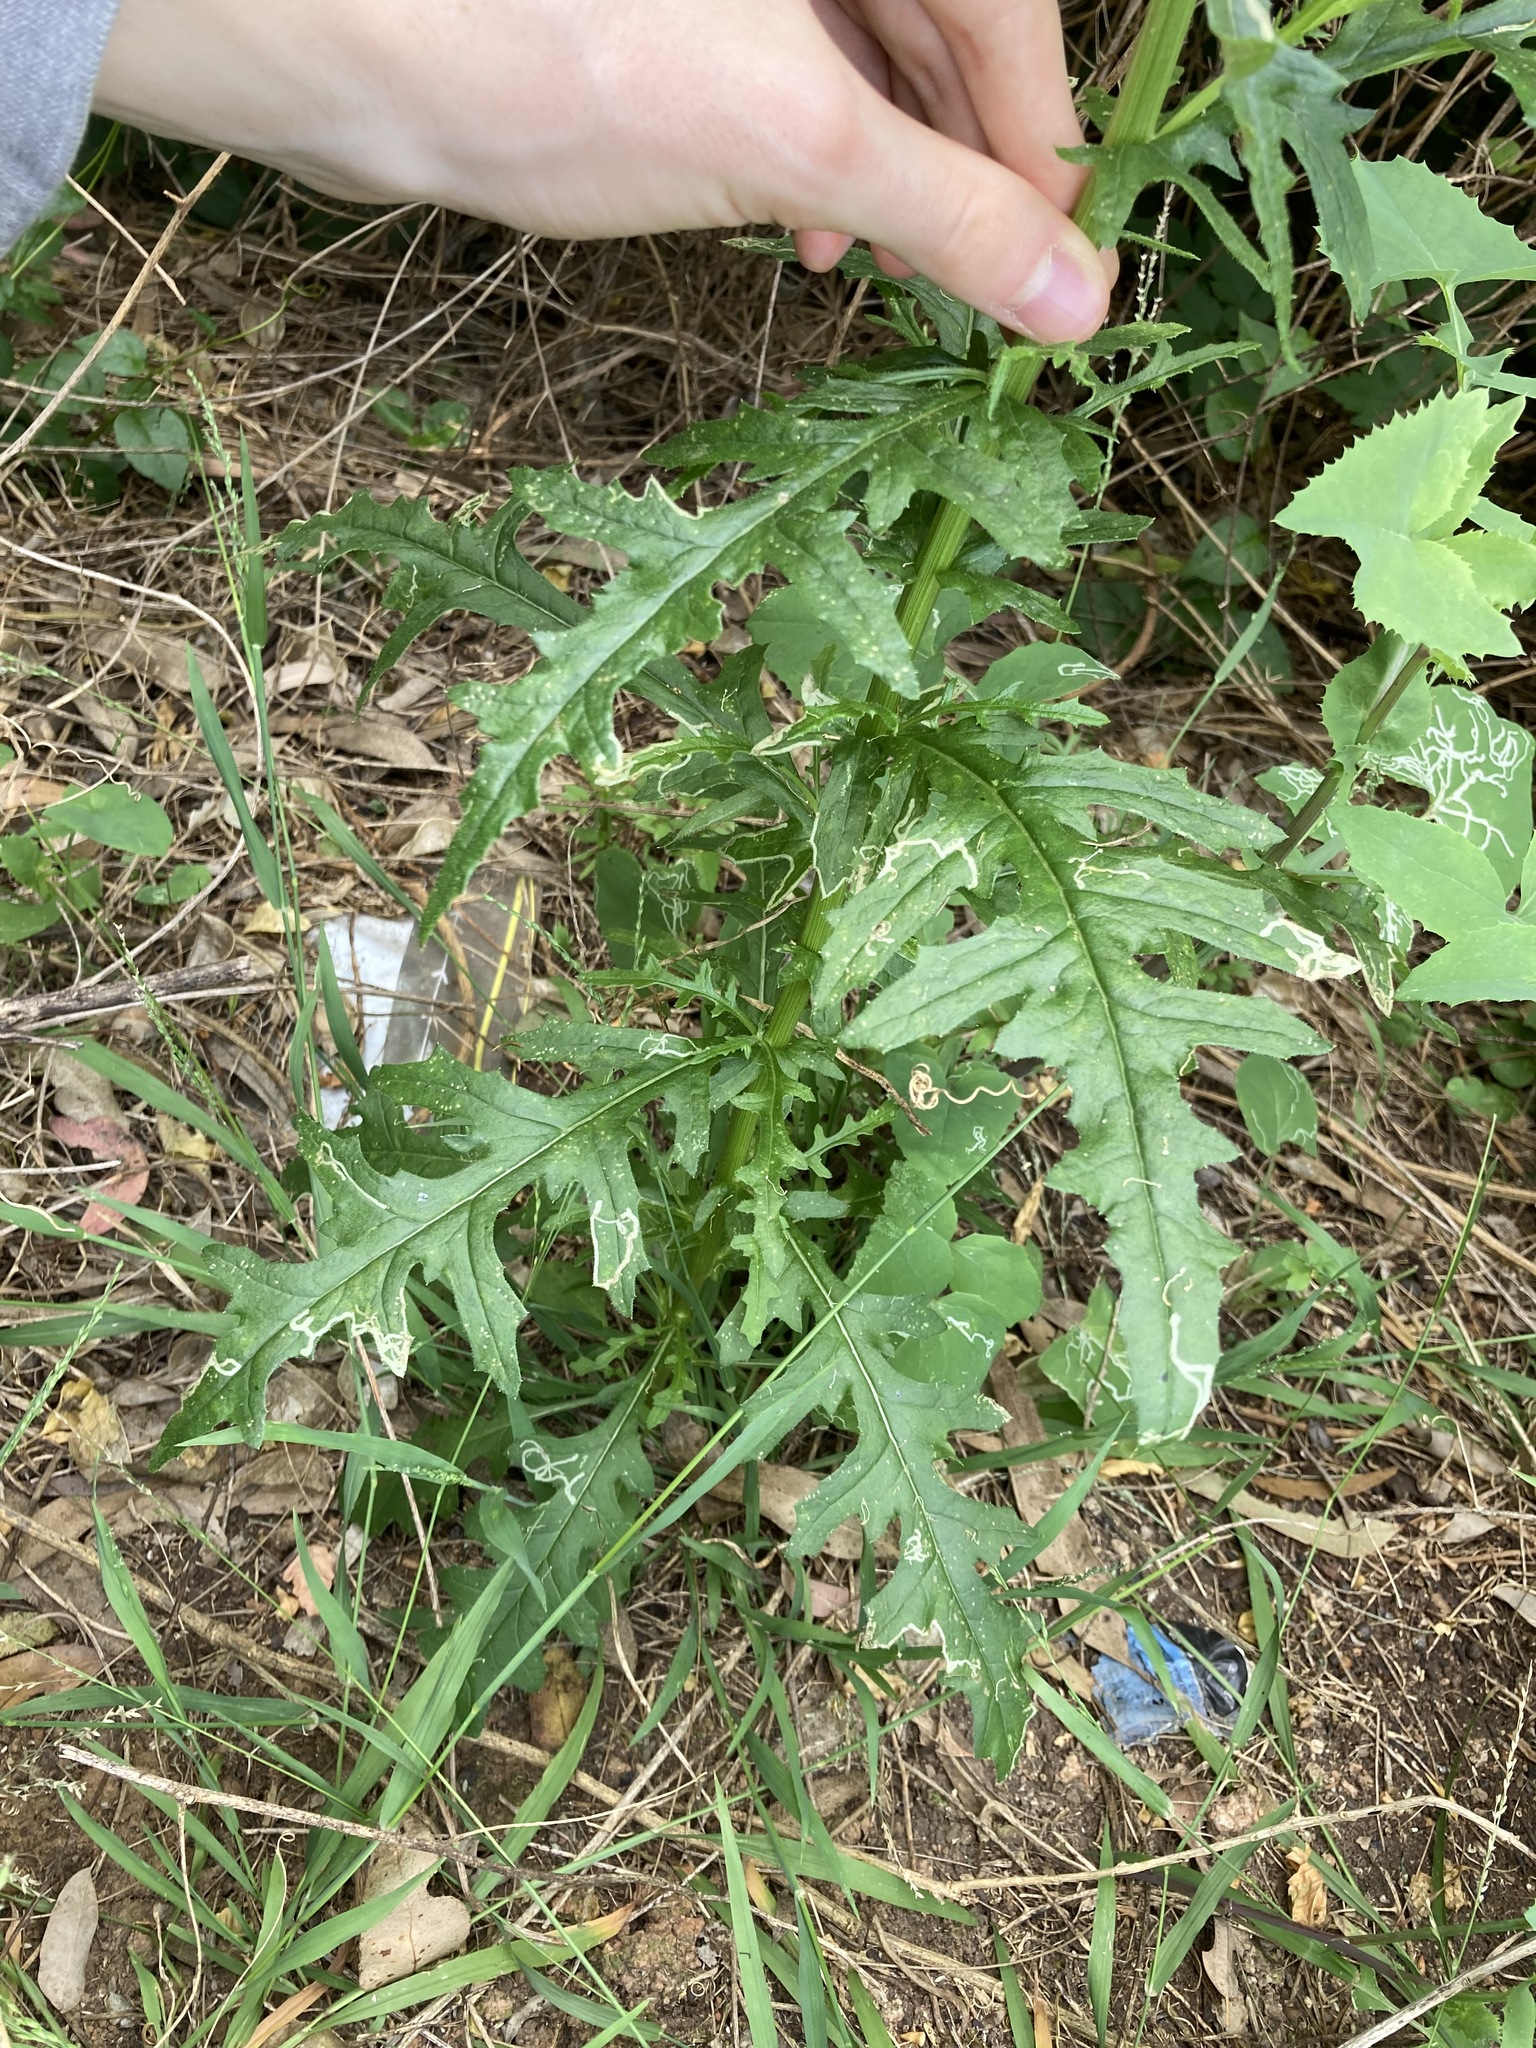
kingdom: Plantae
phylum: Tracheophyta
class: Magnoliopsida
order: Asterales
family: Asteraceae
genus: Senecio
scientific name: Senecio hispidulus
